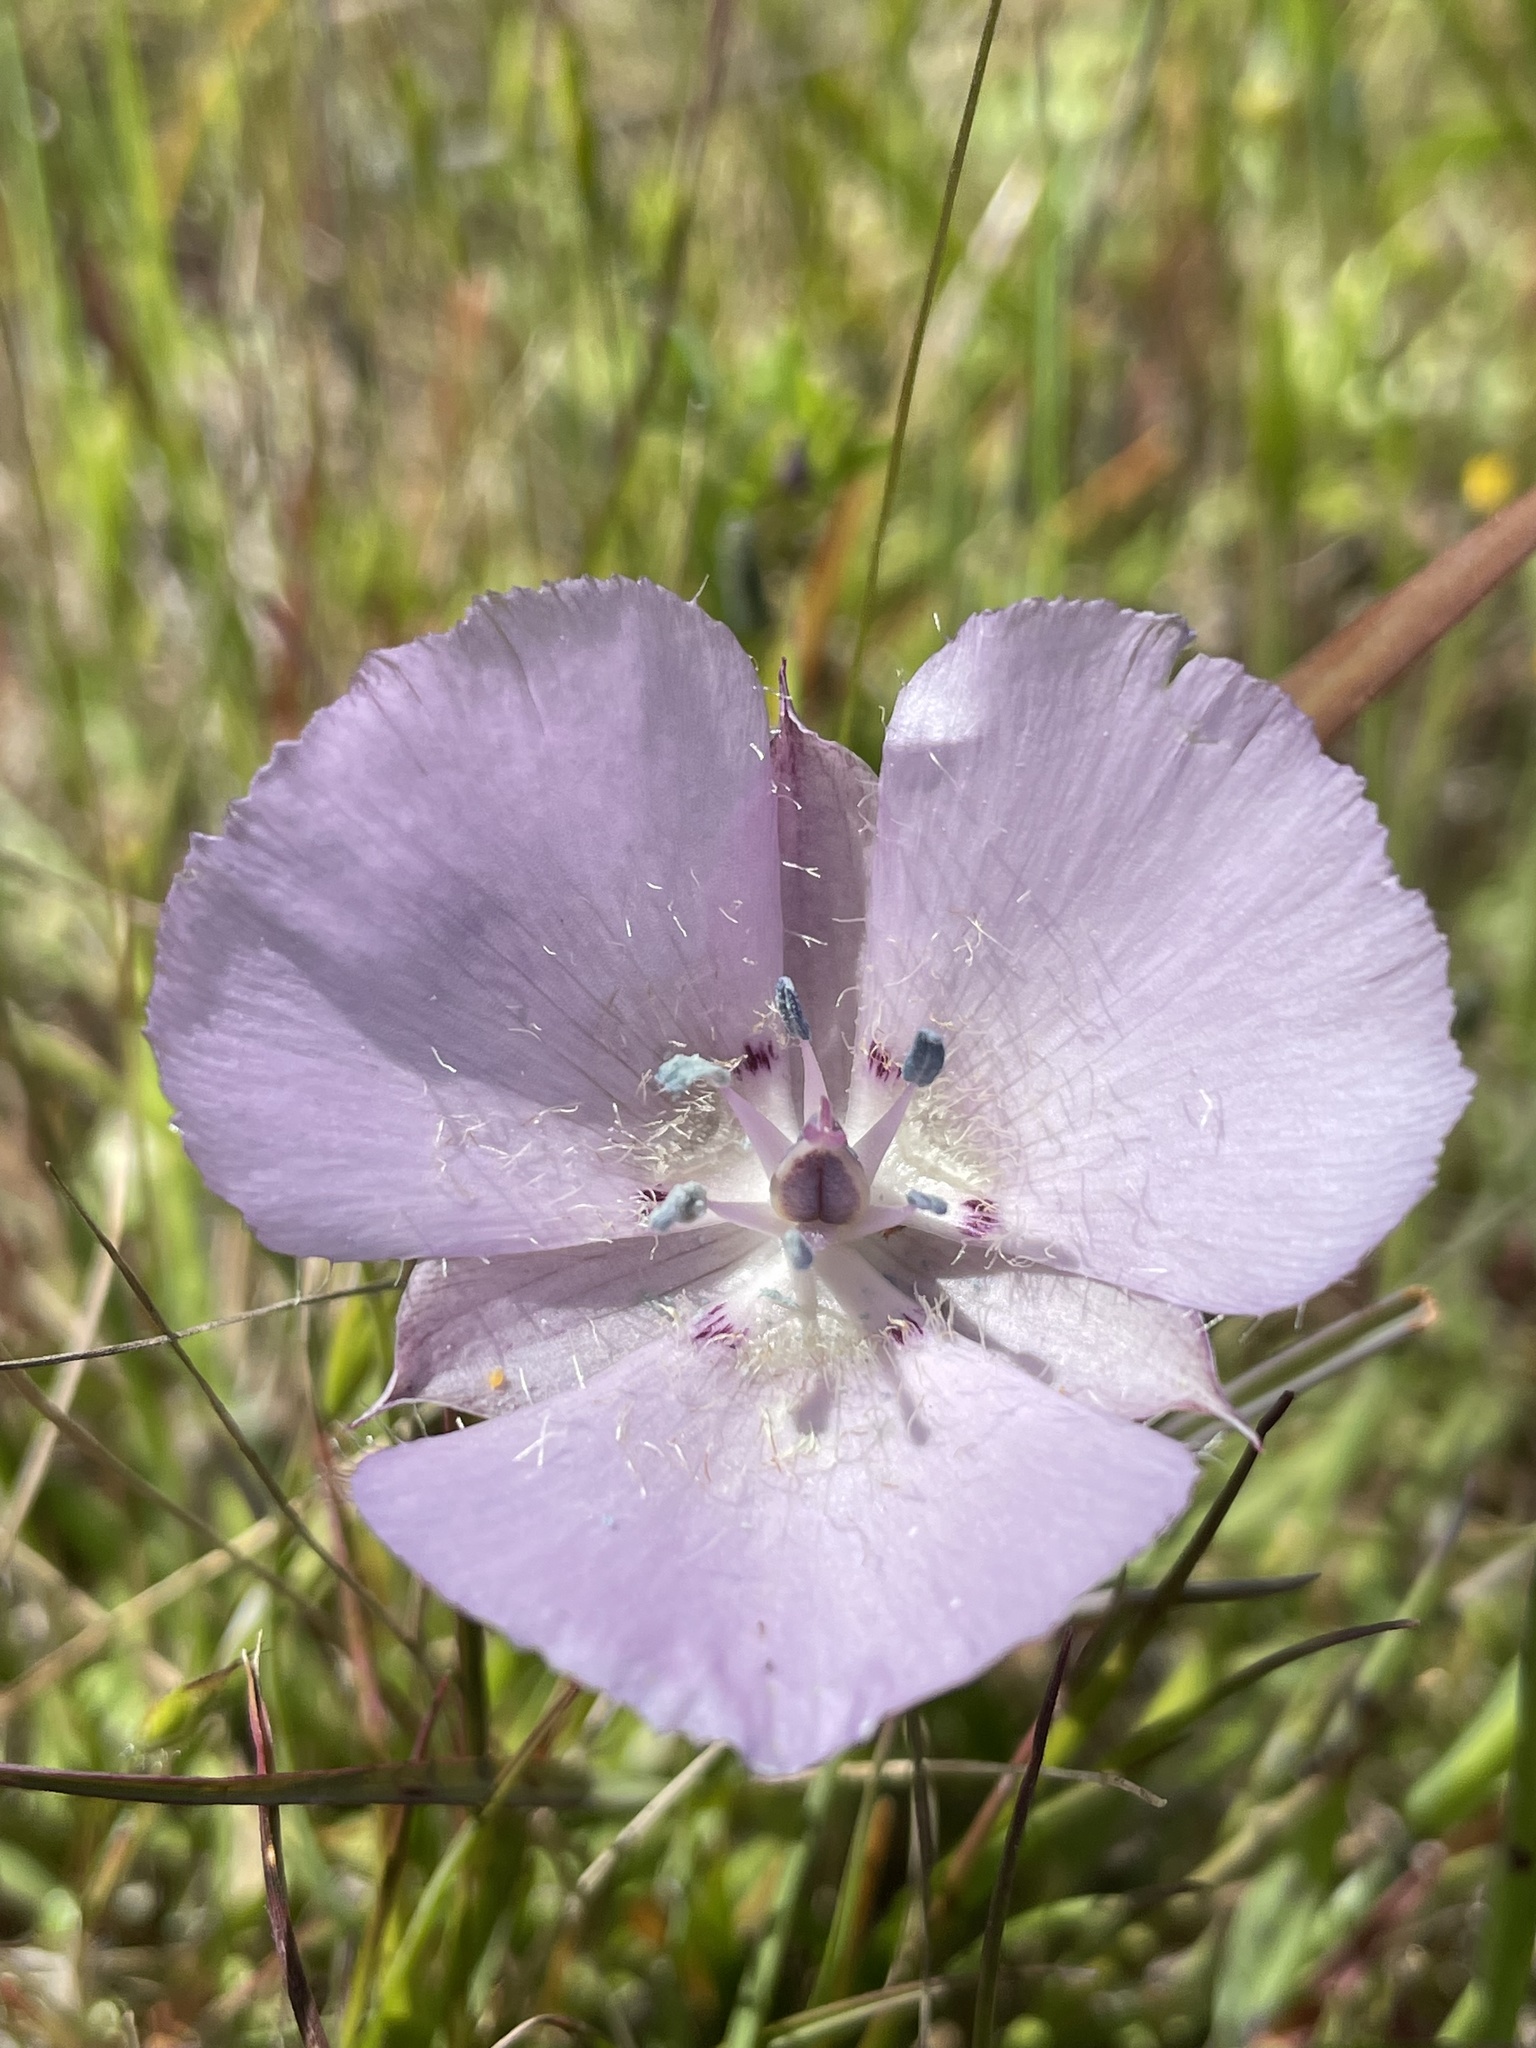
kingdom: Plantae
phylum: Tracheophyta
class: Liliopsida
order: Liliales
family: Liliaceae
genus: Calochortus
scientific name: Calochortus uniflorus
